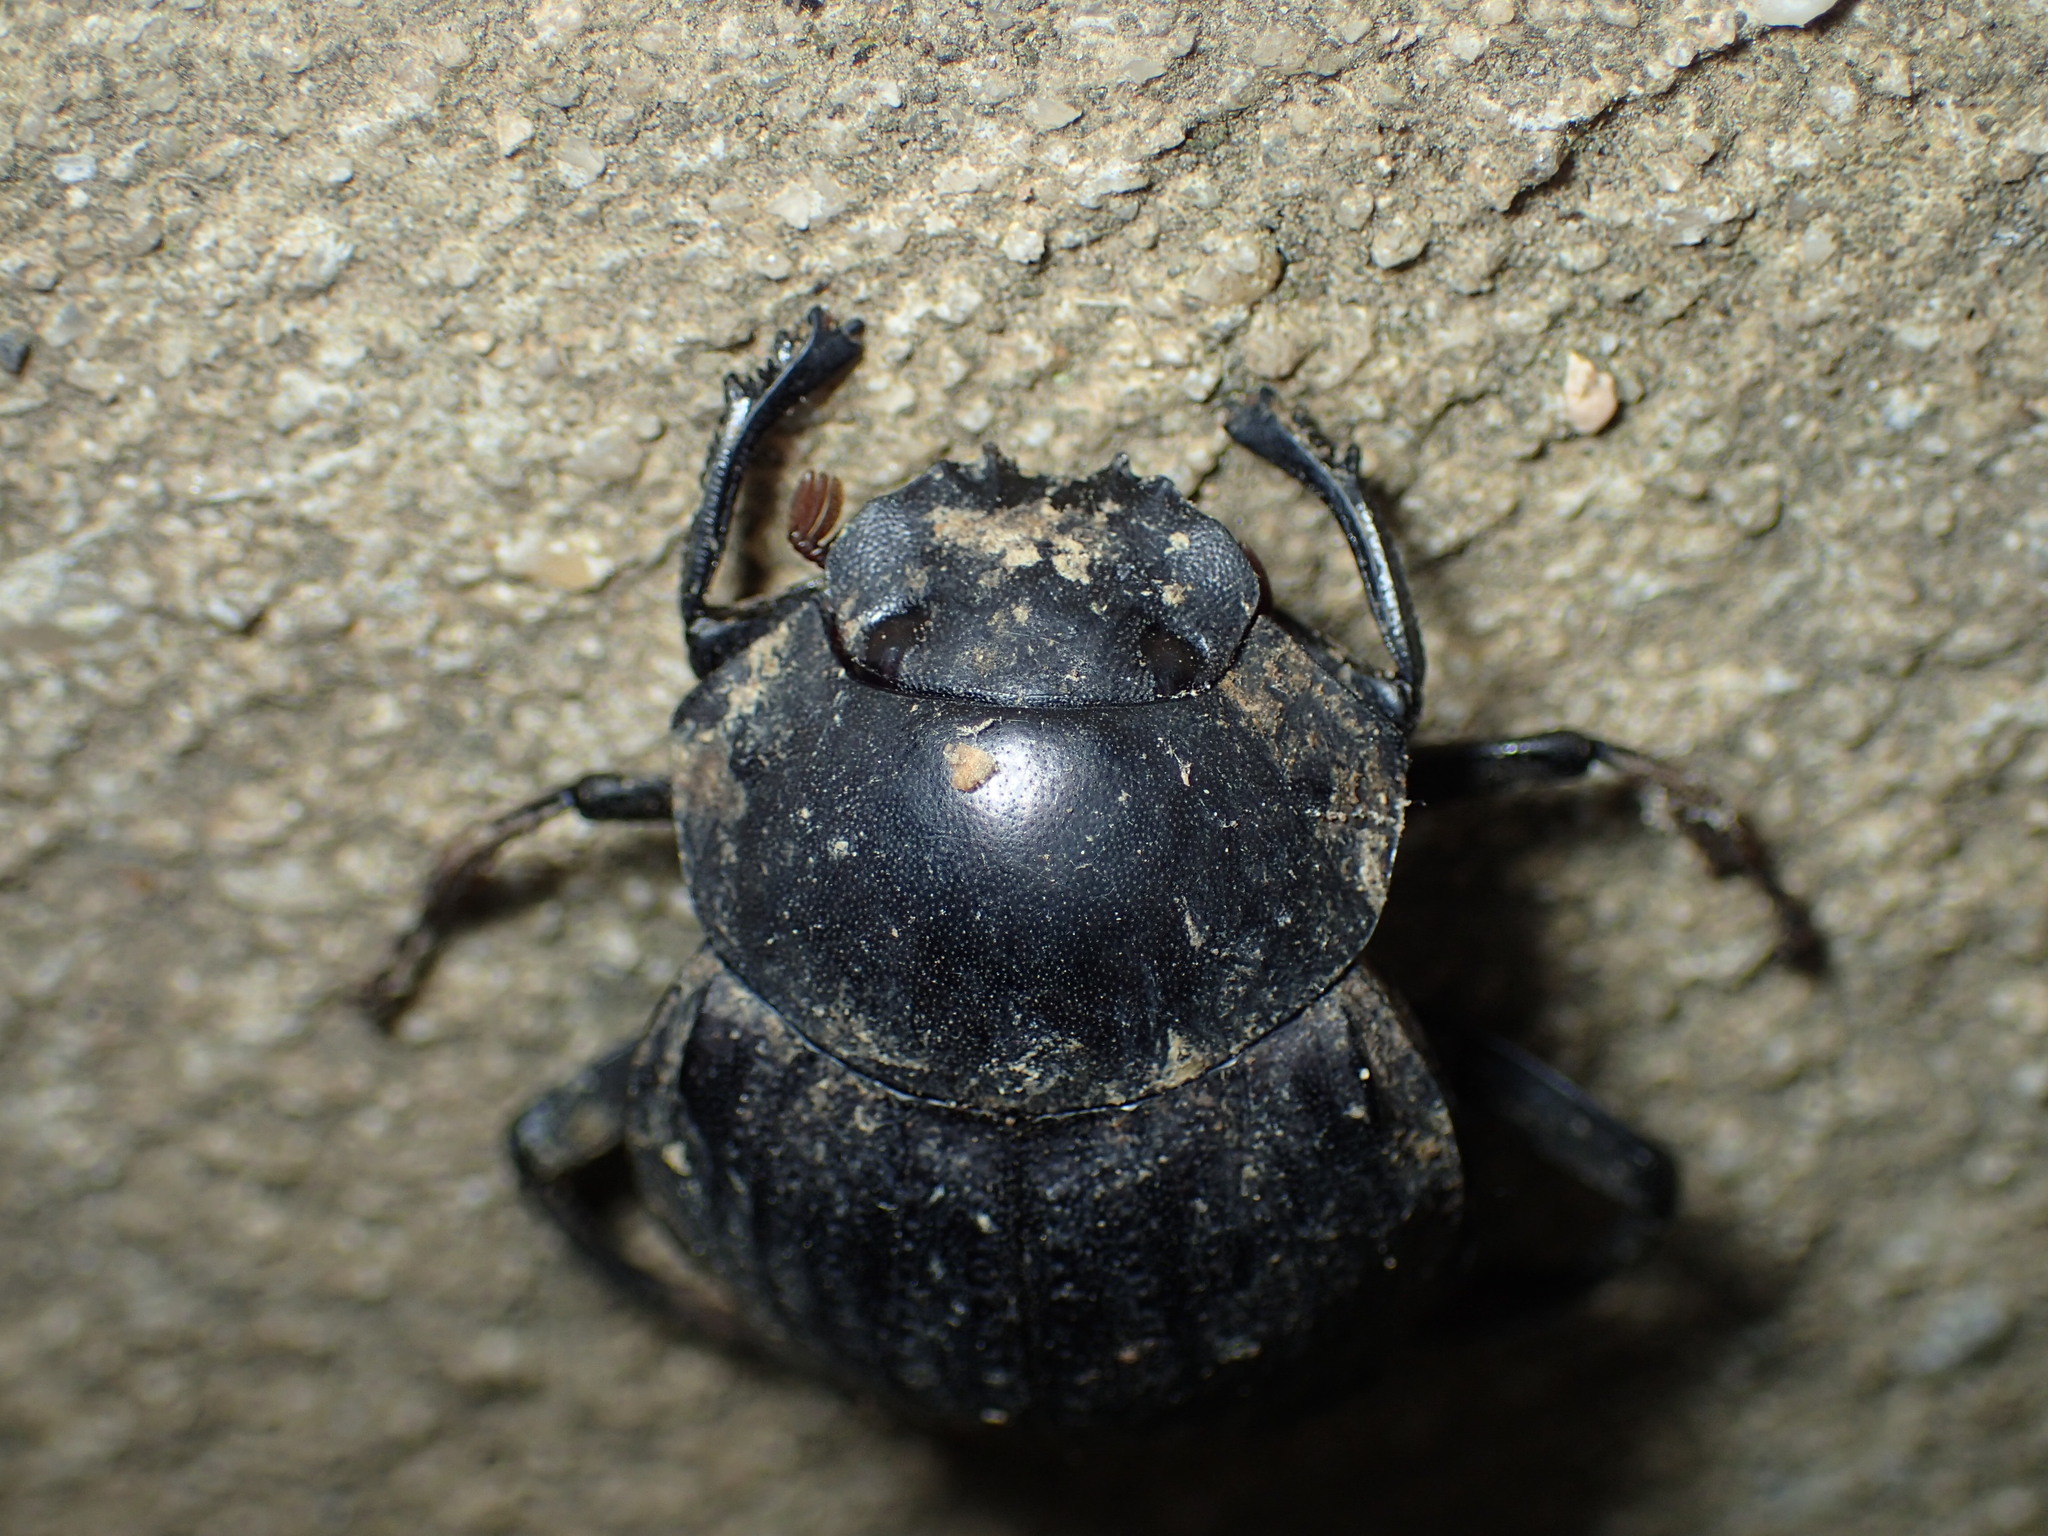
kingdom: Animalia
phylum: Arthropoda
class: Insecta
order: Coleoptera
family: Scarabaeidae
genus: Deltochilum
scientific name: Deltochilum gibbosum
